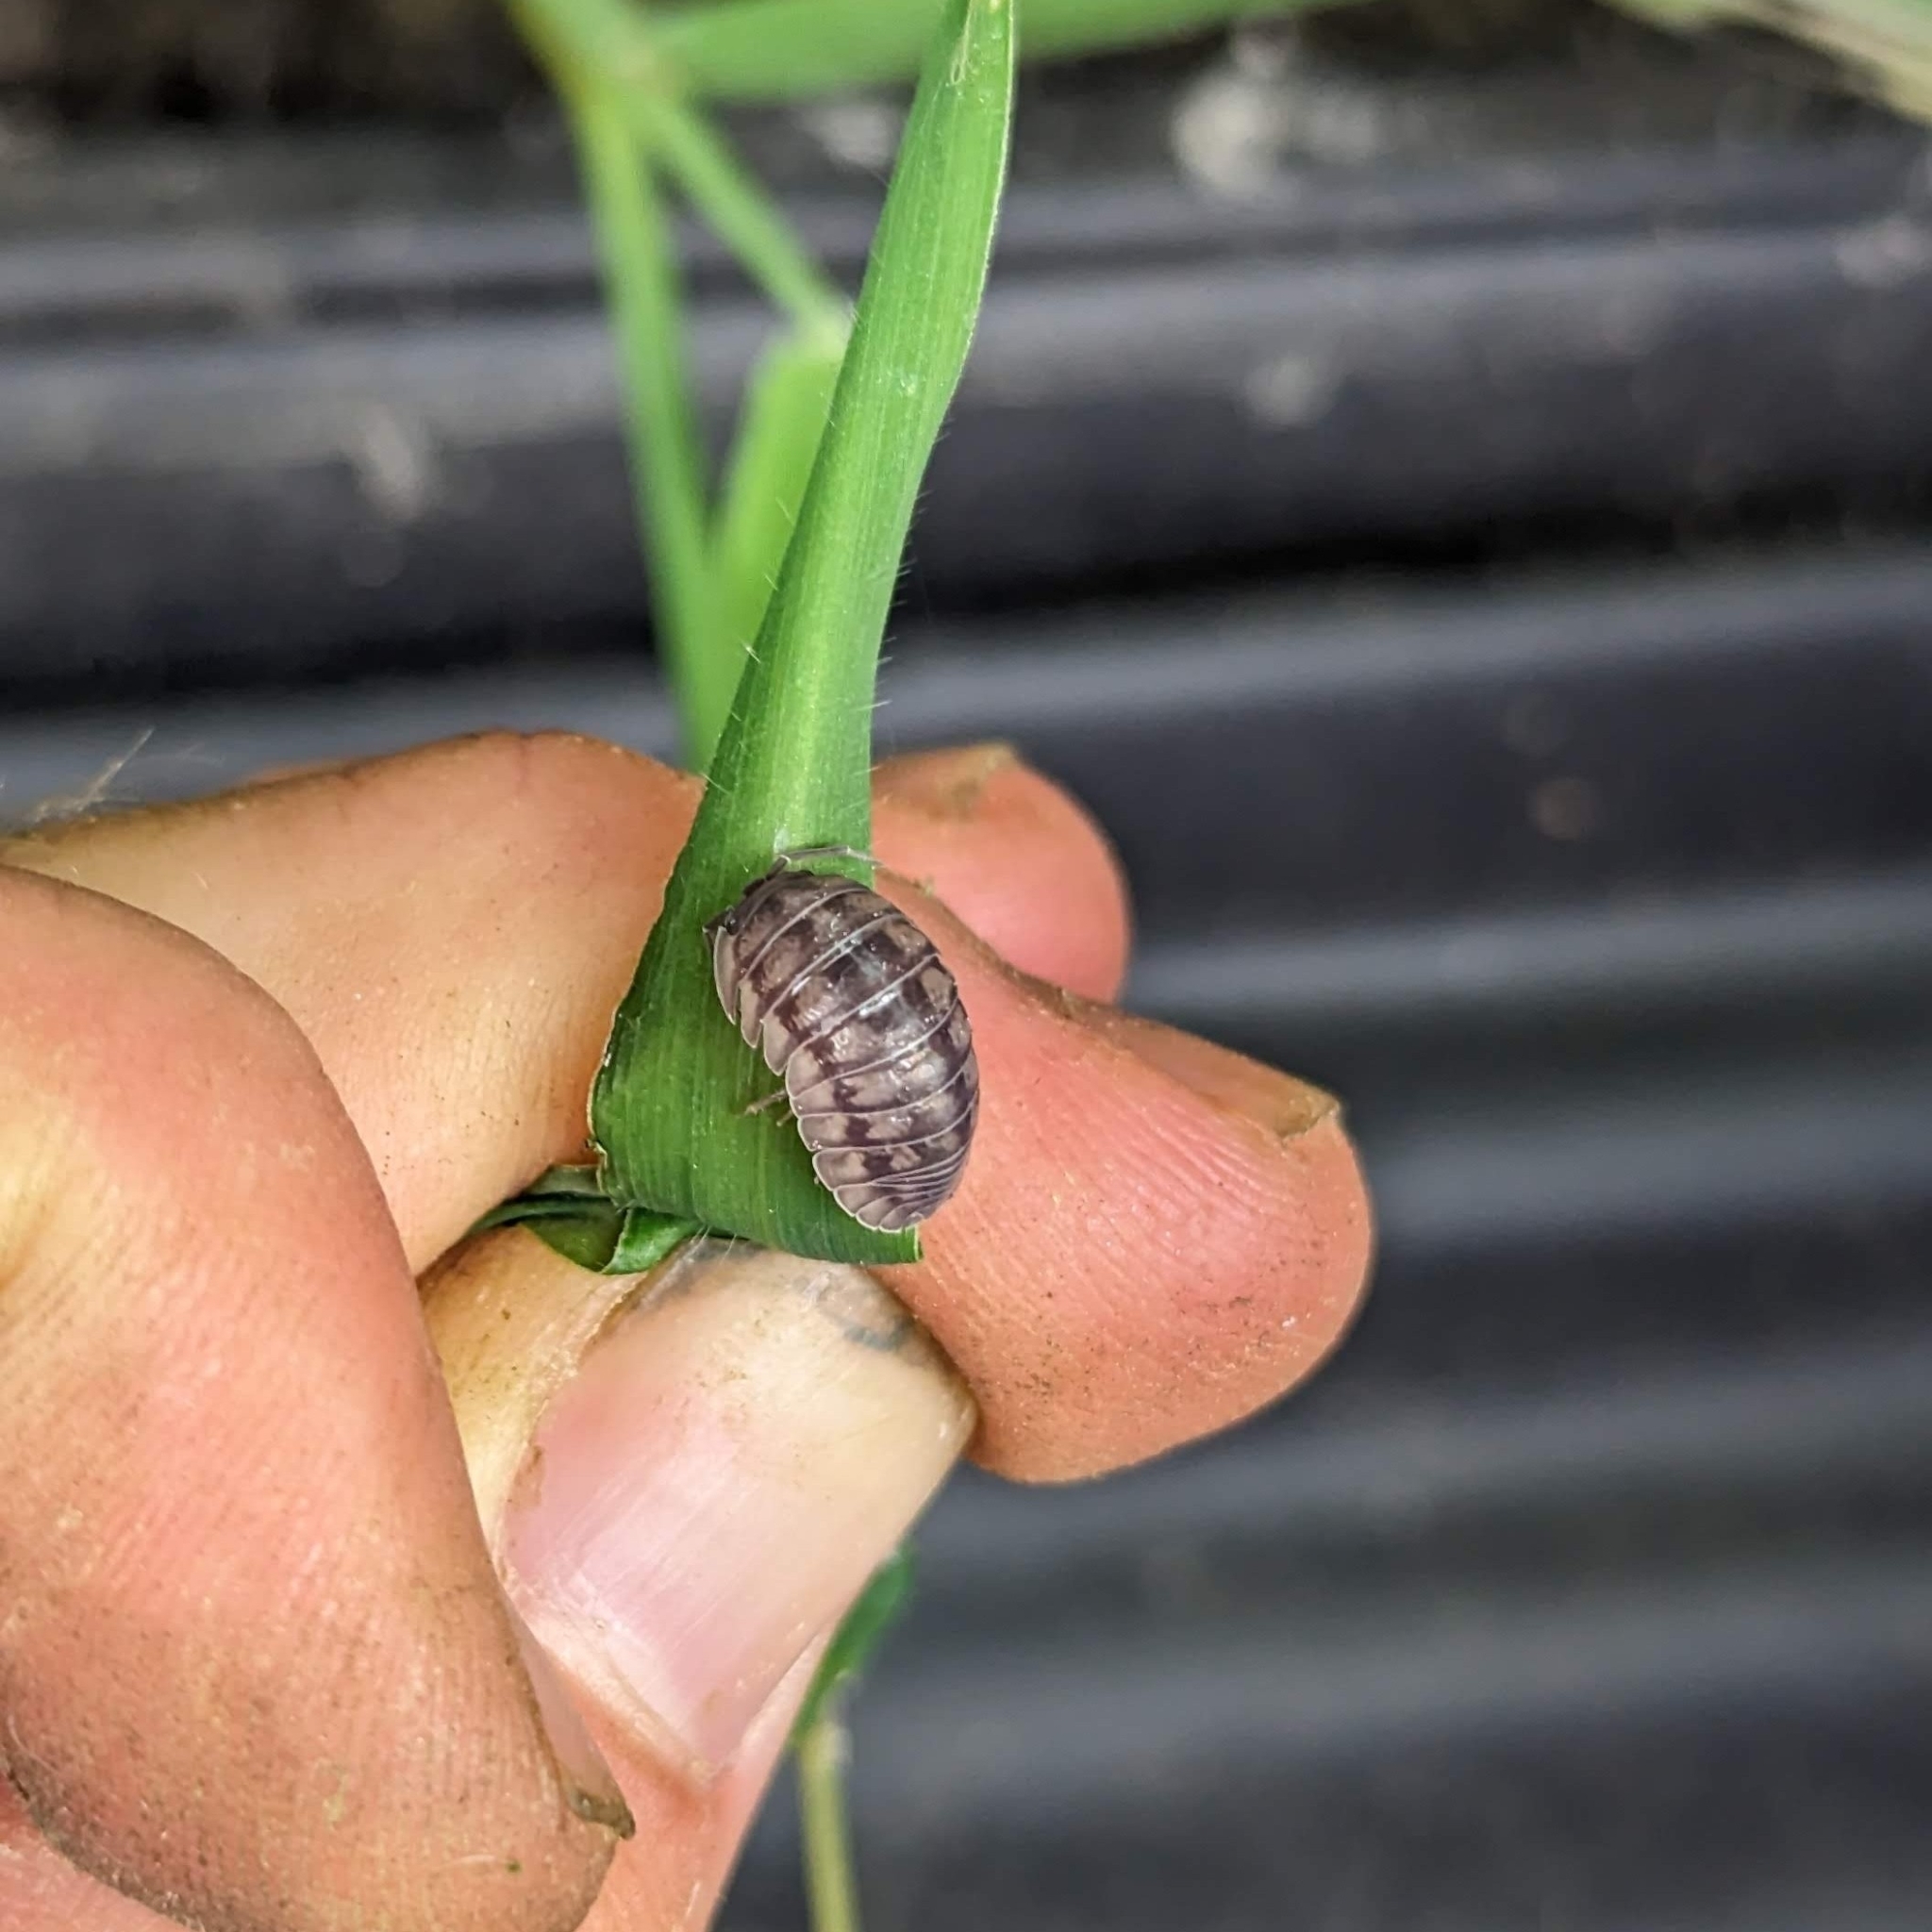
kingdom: Animalia
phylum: Arthropoda
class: Malacostraca
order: Isopoda
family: Armadillidiidae
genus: Armadillidium
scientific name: Armadillidium nasatum
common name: Isopod
